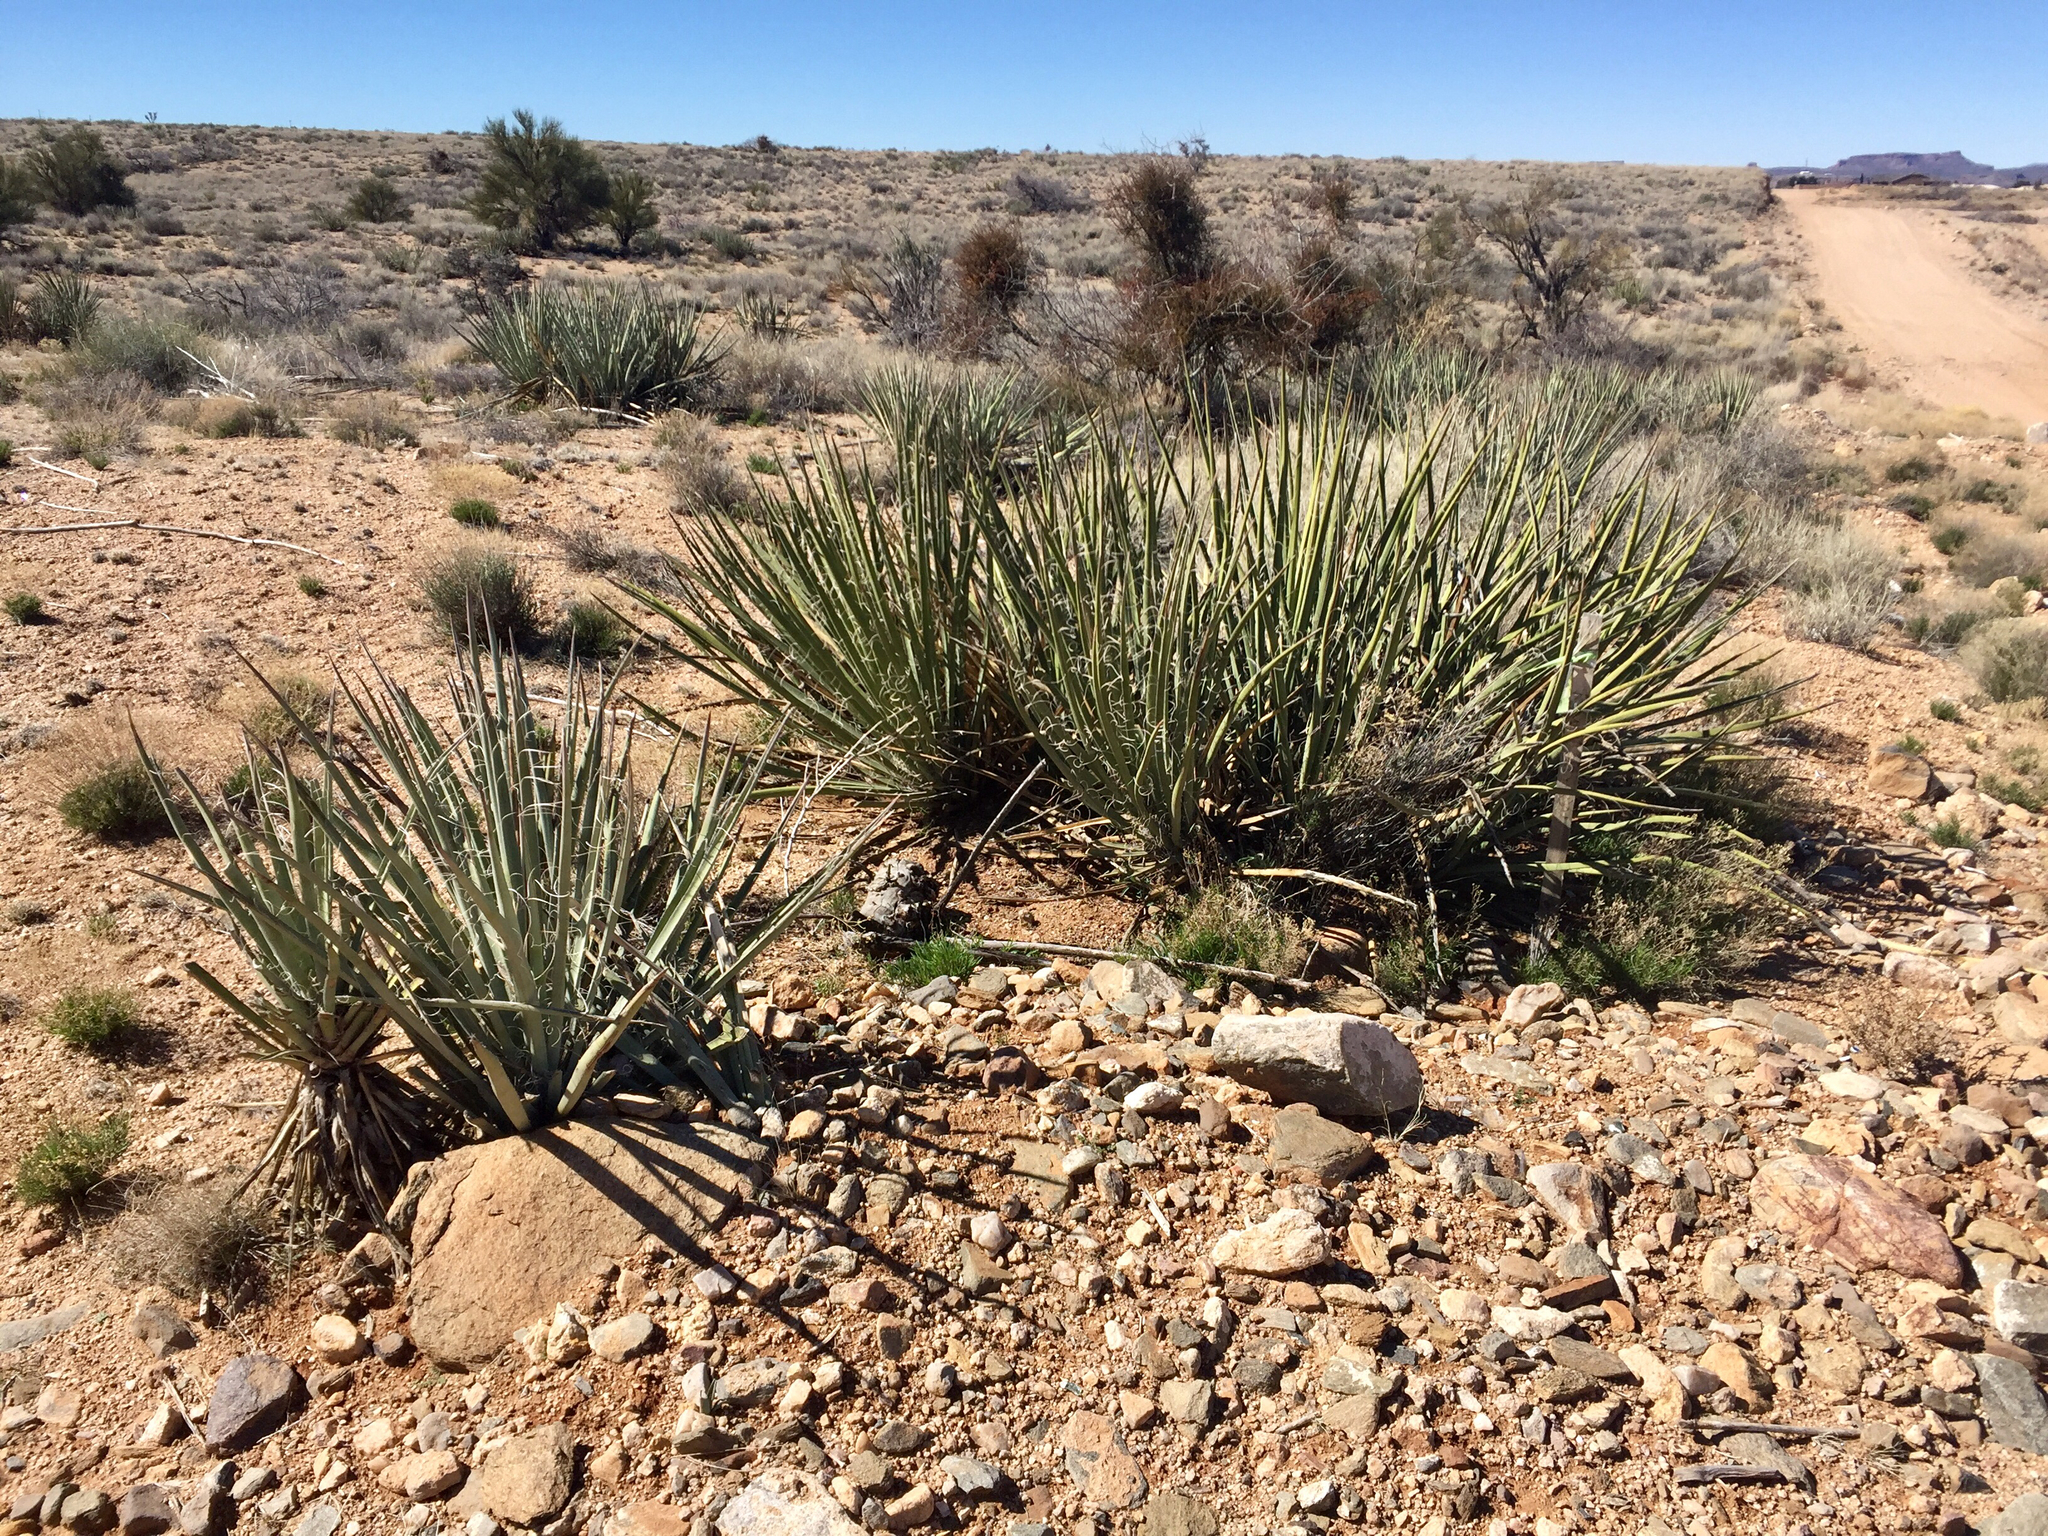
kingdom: Plantae
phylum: Tracheophyta
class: Liliopsida
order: Asparagales
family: Asparagaceae
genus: Yucca
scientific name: Yucca baccata
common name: Banana yucca
